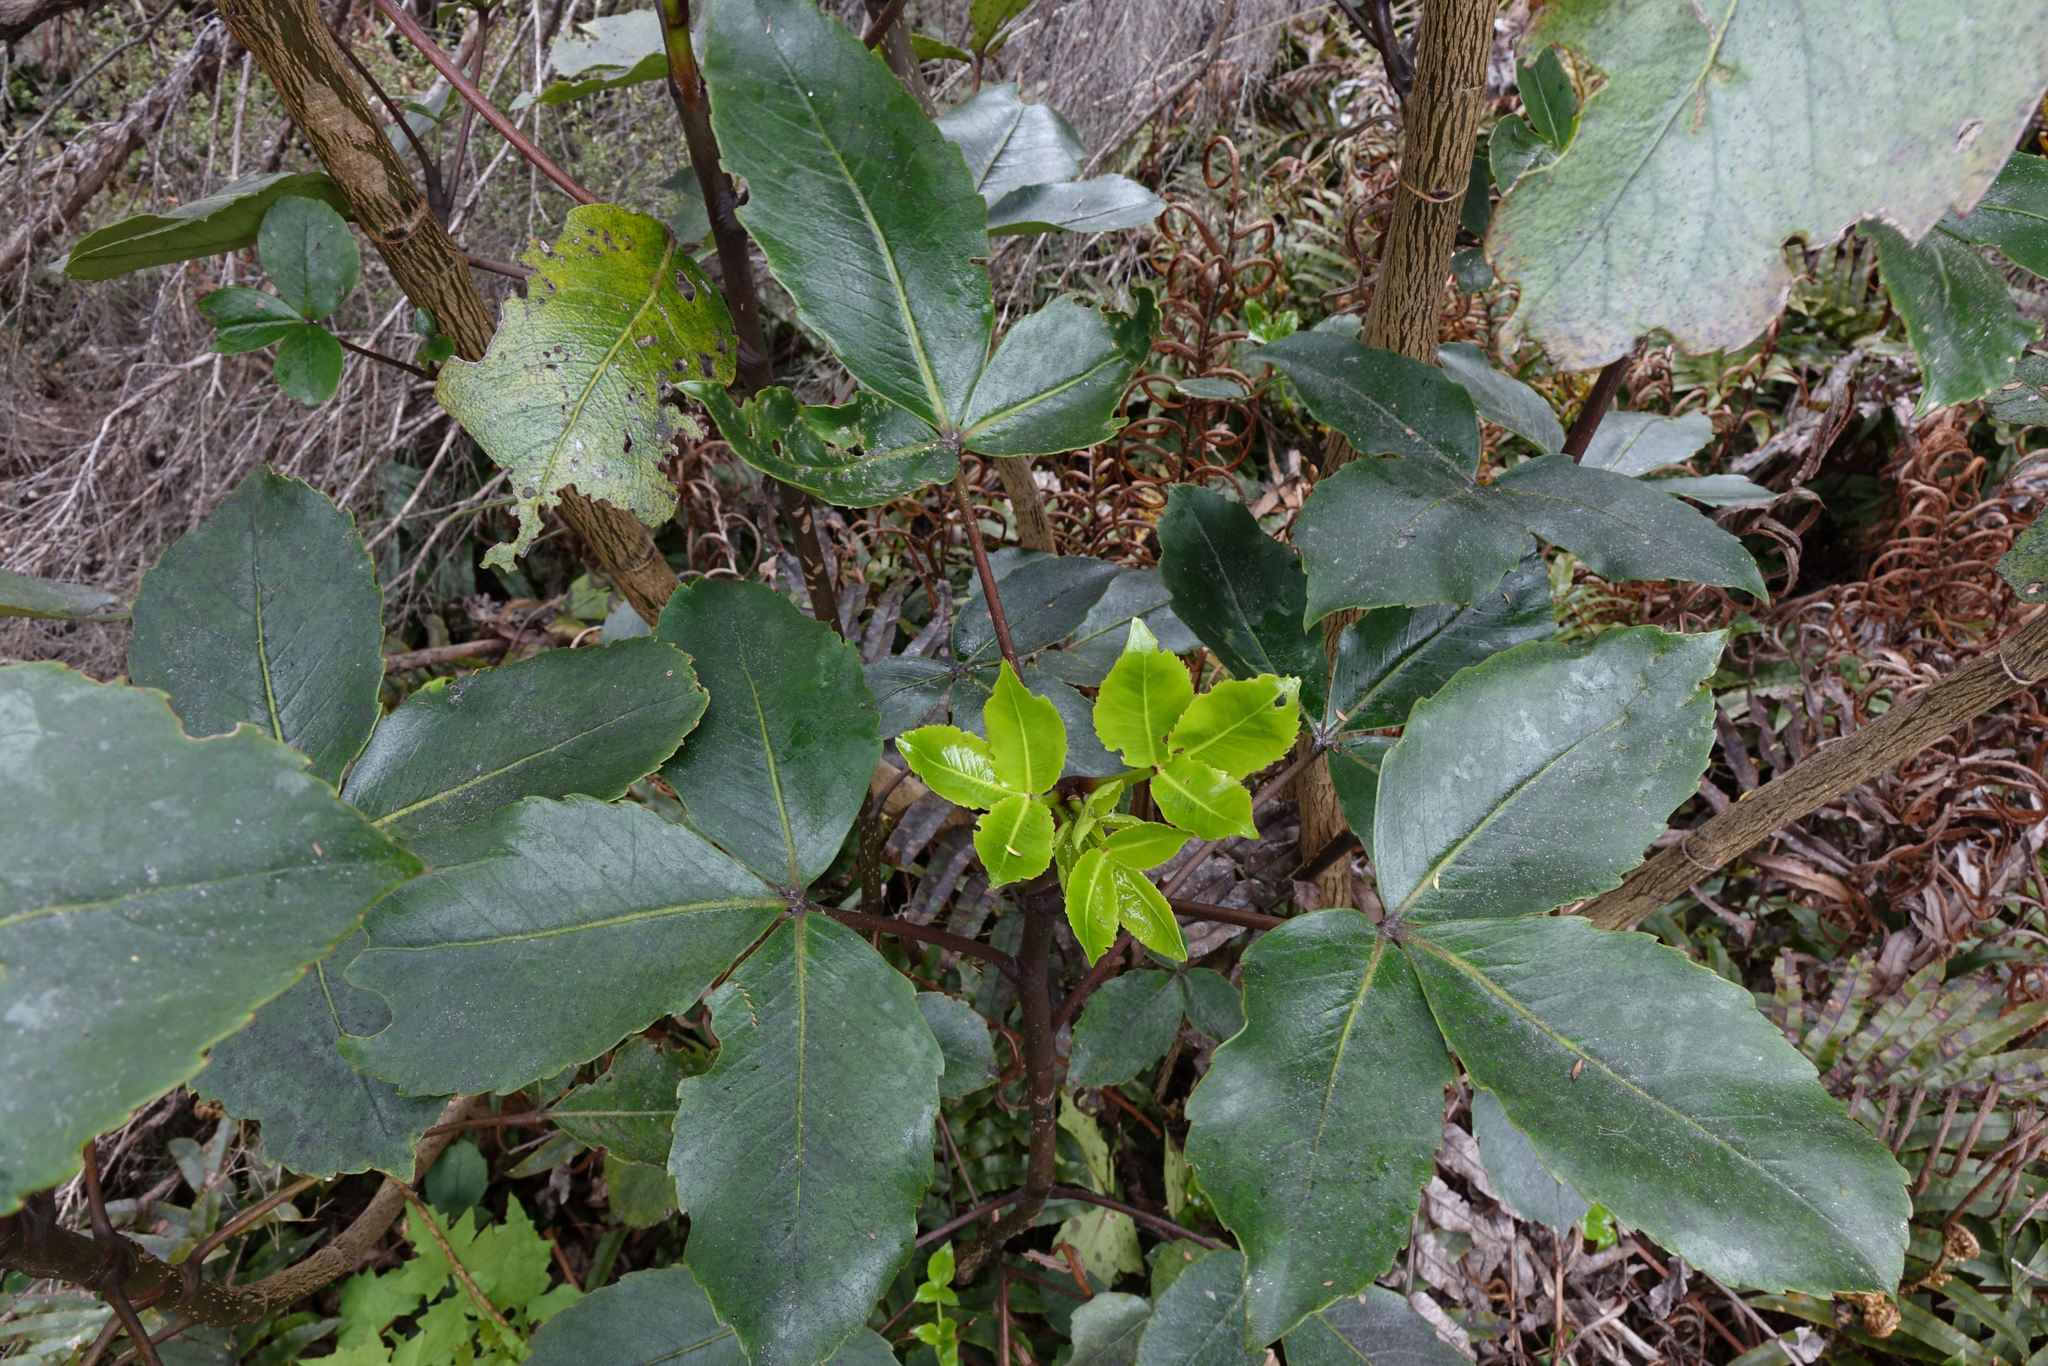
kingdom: Plantae
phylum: Tracheophyta
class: Magnoliopsida
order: Apiales
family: Araliaceae
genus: Neopanax
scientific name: Neopanax colensoi
